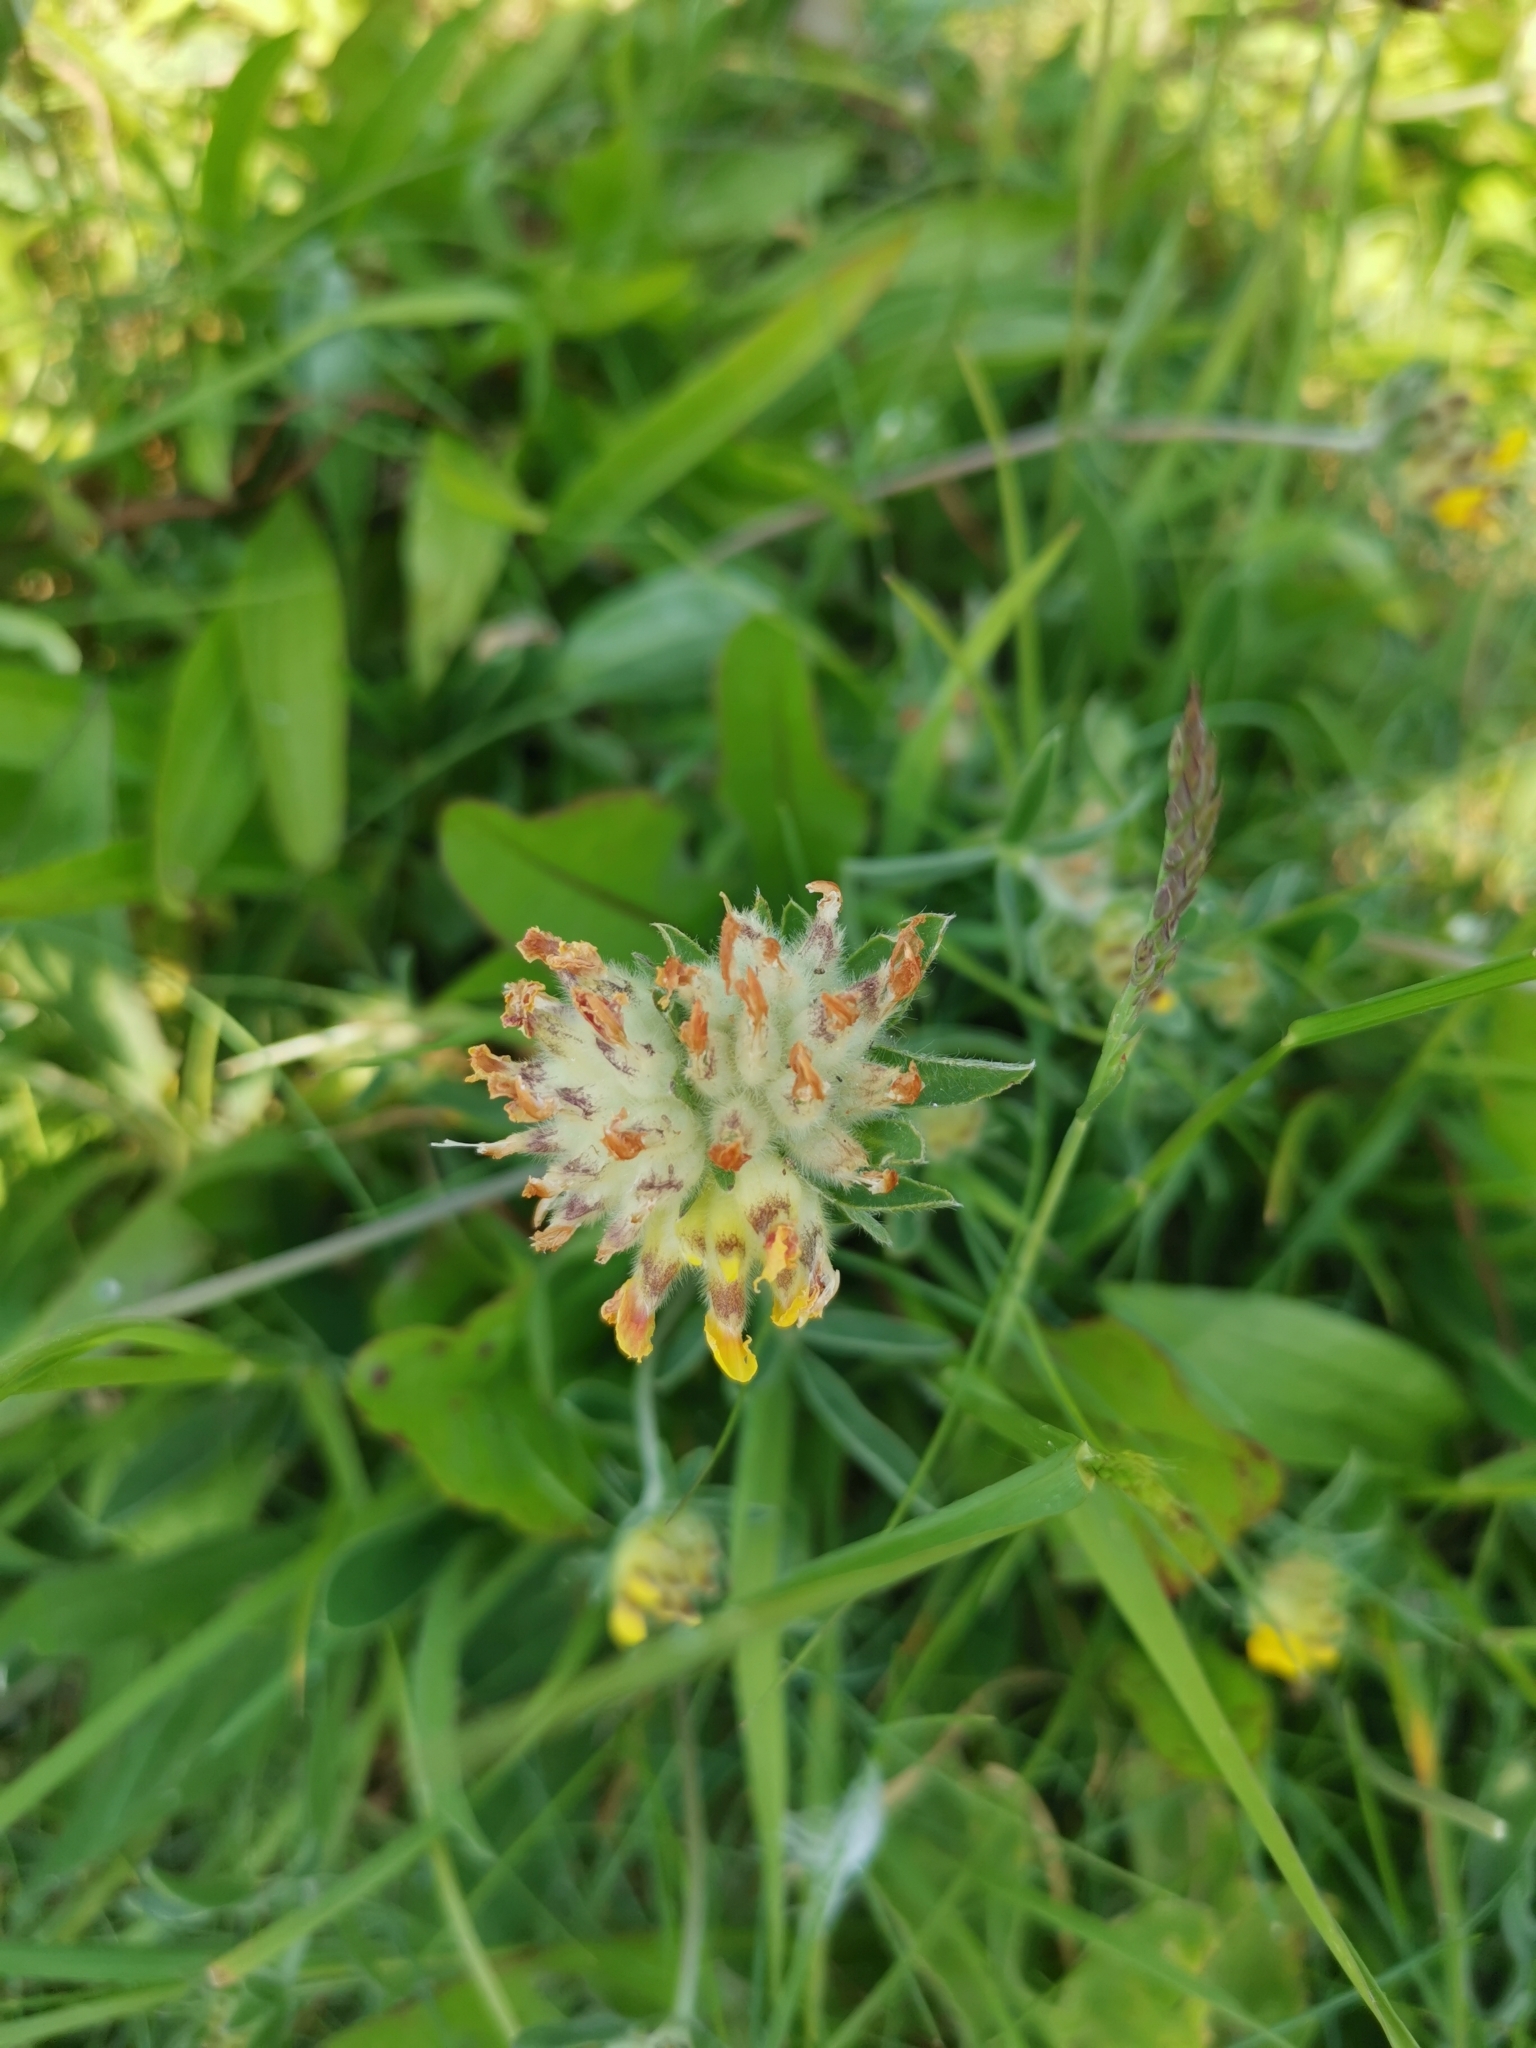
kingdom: Plantae
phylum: Tracheophyta
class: Magnoliopsida
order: Fabales
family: Fabaceae
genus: Anthyllis
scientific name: Anthyllis vulneraria
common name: Kidney vetch
